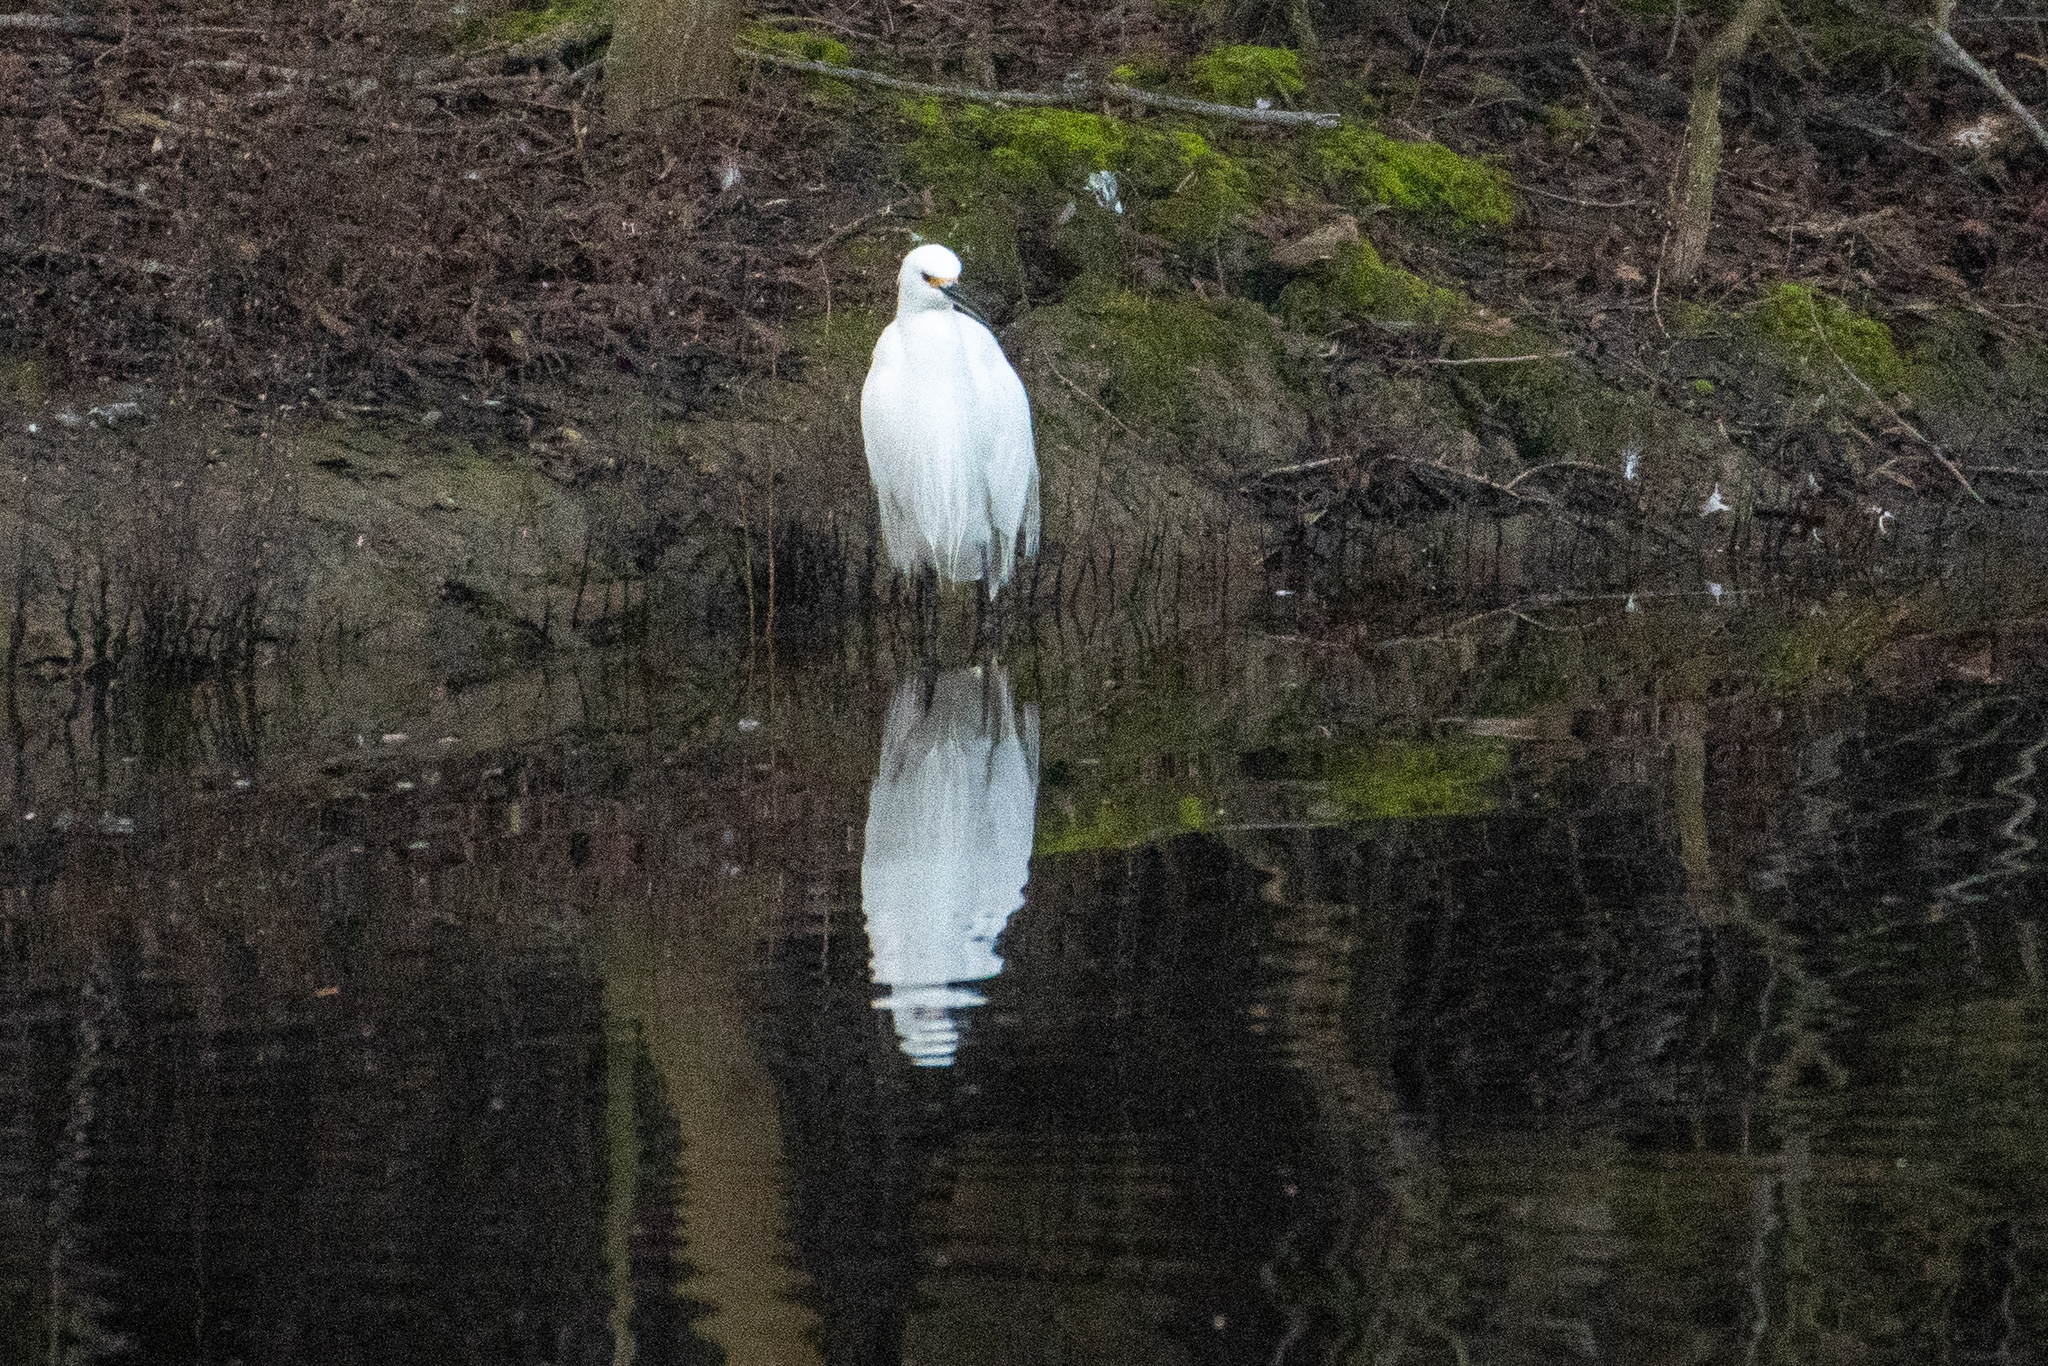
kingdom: Animalia
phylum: Chordata
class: Aves
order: Pelecaniformes
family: Ardeidae
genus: Egretta
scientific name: Egretta thula
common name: Snowy egret
